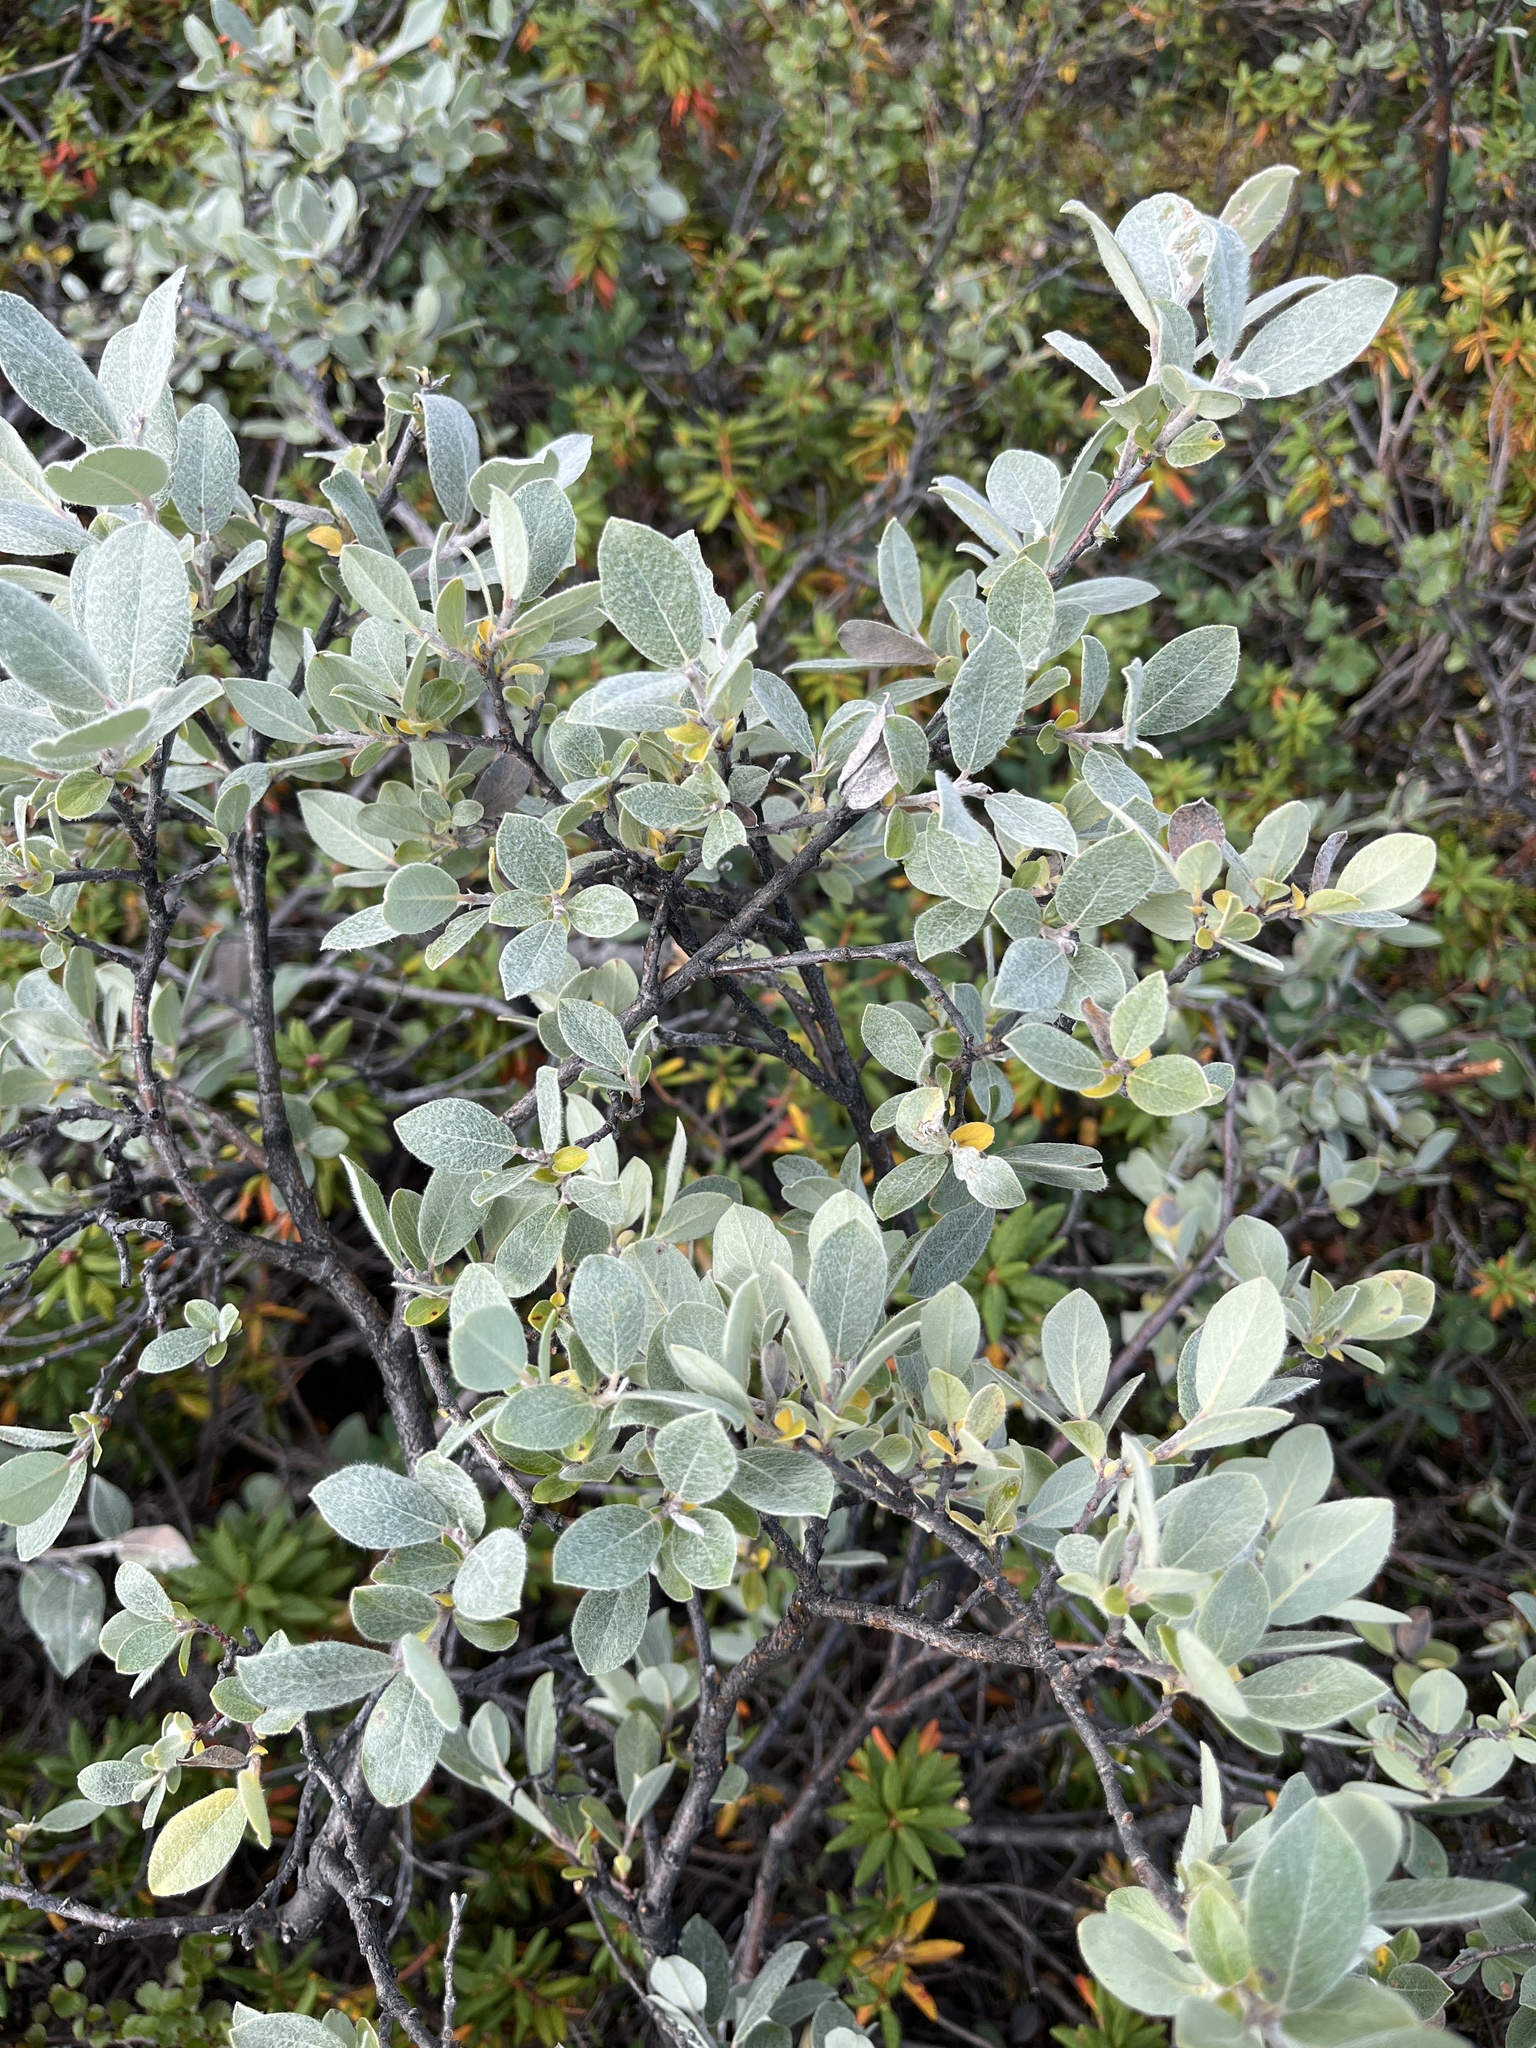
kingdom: Plantae
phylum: Tracheophyta
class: Magnoliopsida
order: Malpighiales
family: Salicaceae
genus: Salix
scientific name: Salix glauca
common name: Glaucous willow
